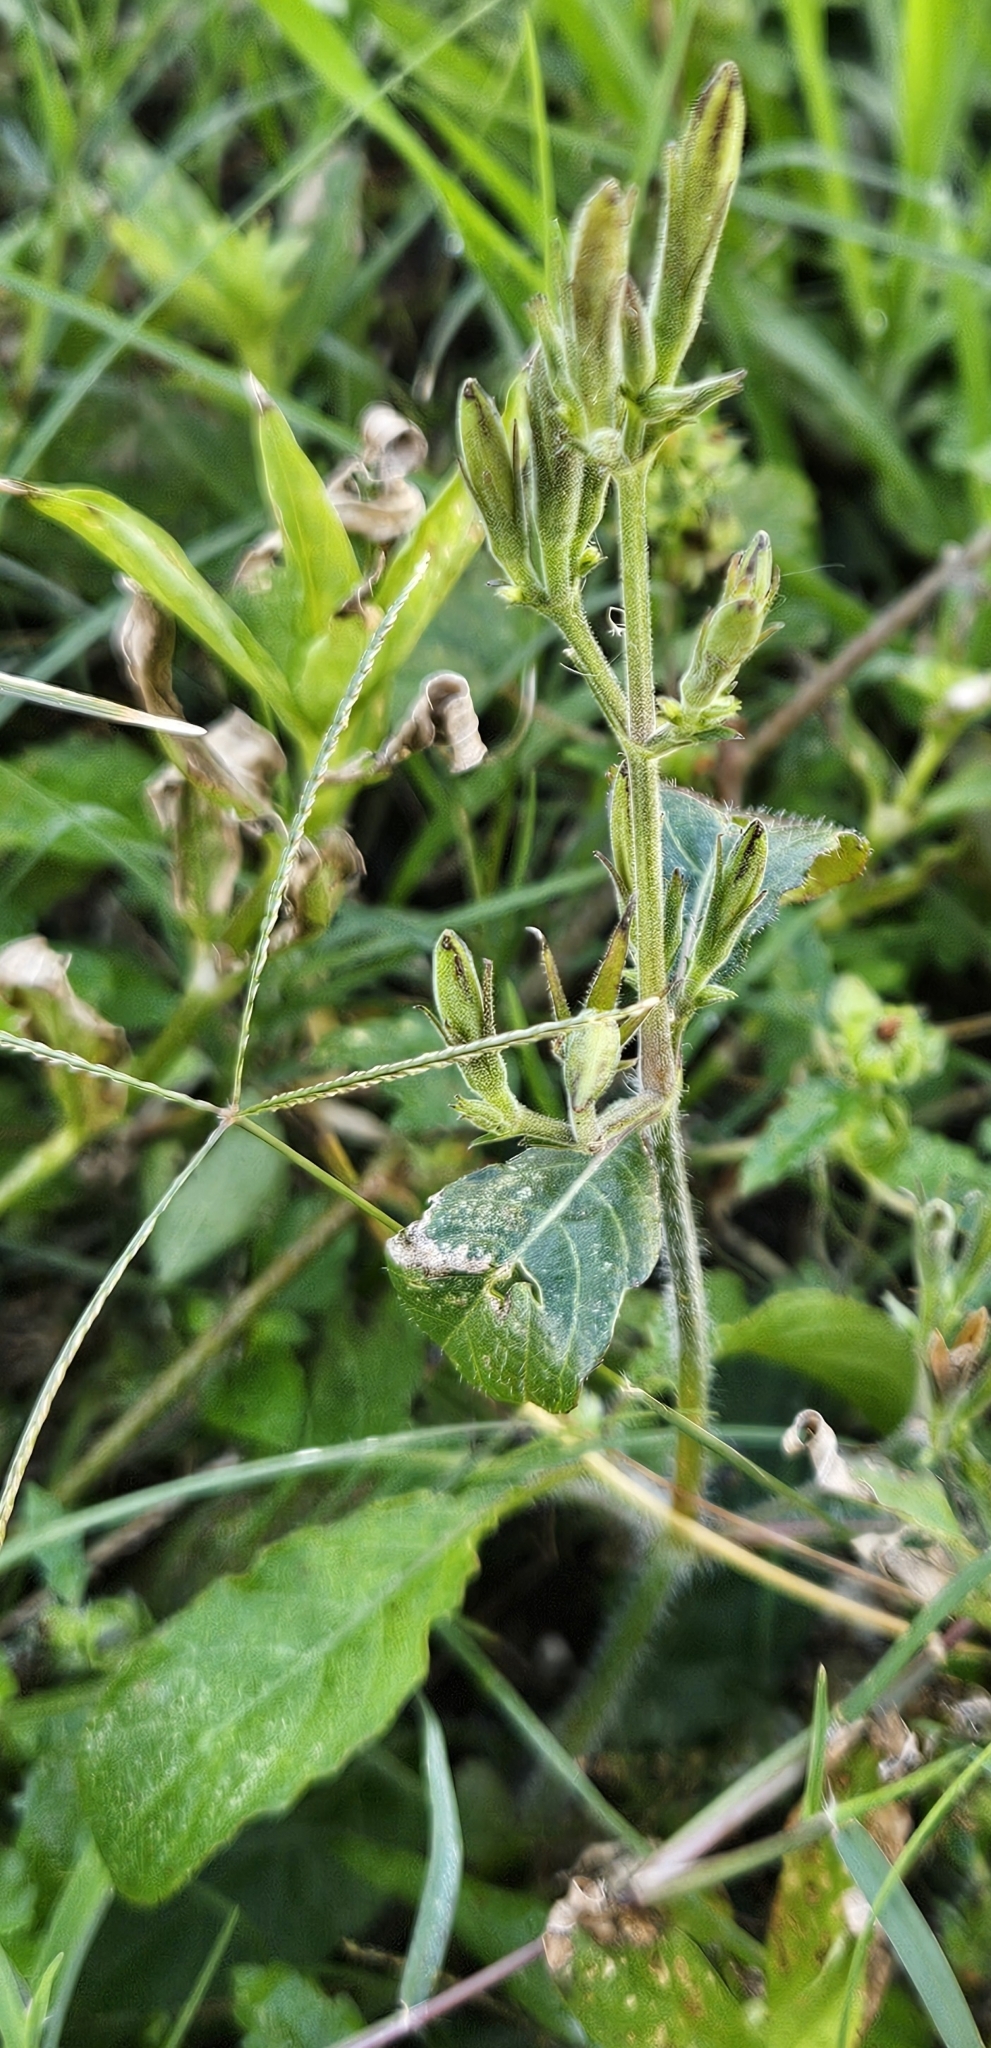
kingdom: Plantae
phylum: Tracheophyta
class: Magnoliopsida
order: Lamiales
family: Acanthaceae
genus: Ruellia
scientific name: Ruellia ciliatiflora
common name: Hairyflower wild petunia
